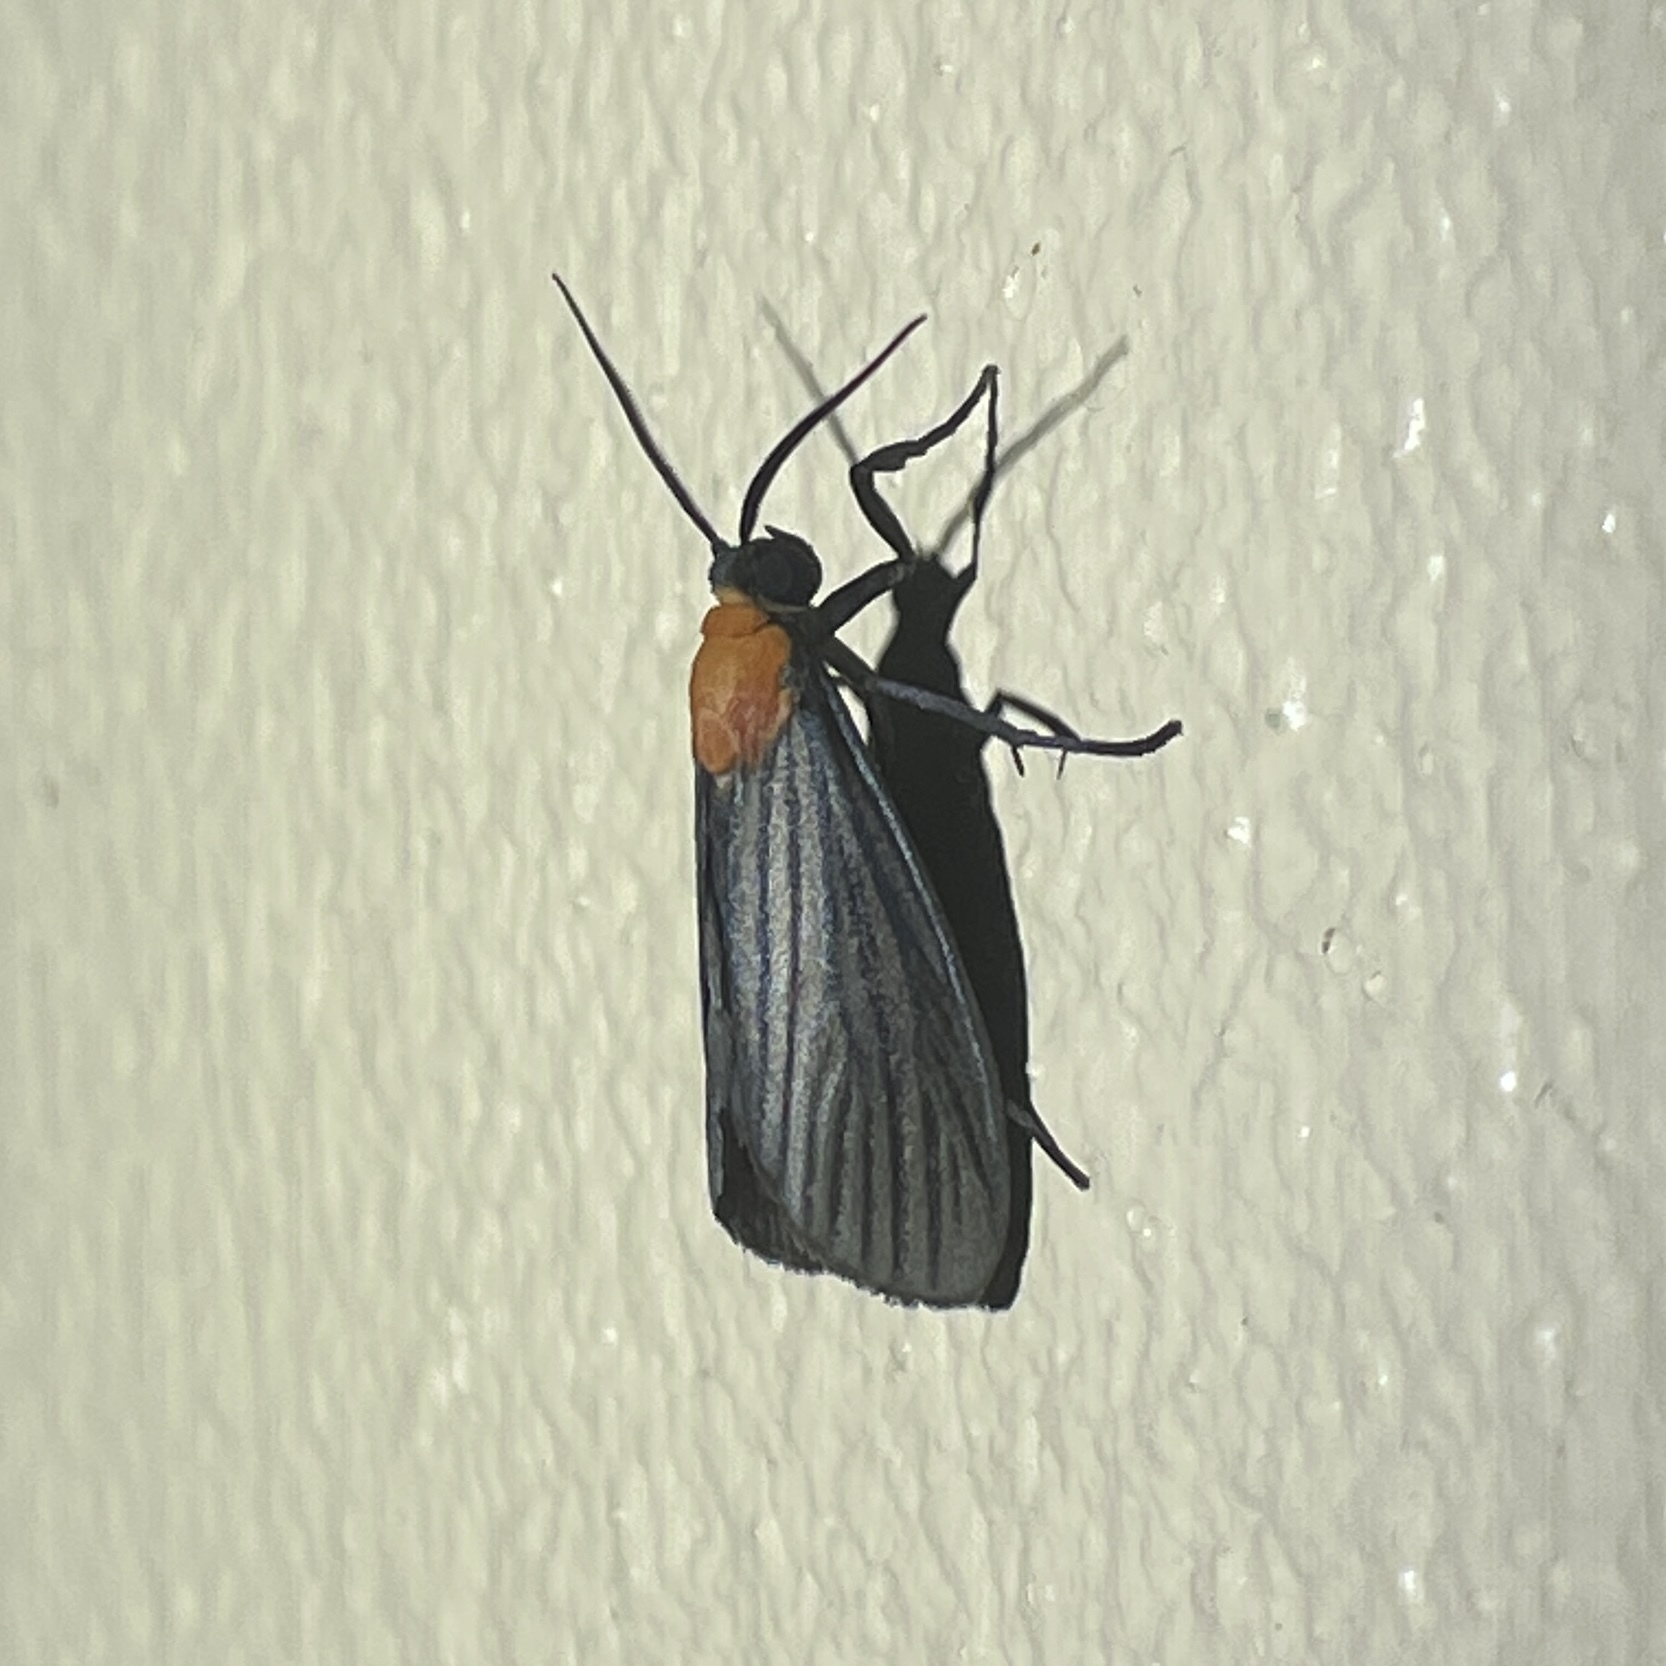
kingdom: Animalia
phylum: Arthropoda
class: Insecta
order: Lepidoptera
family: Erebidae
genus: Balbura
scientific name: Balbura dorsisigna
